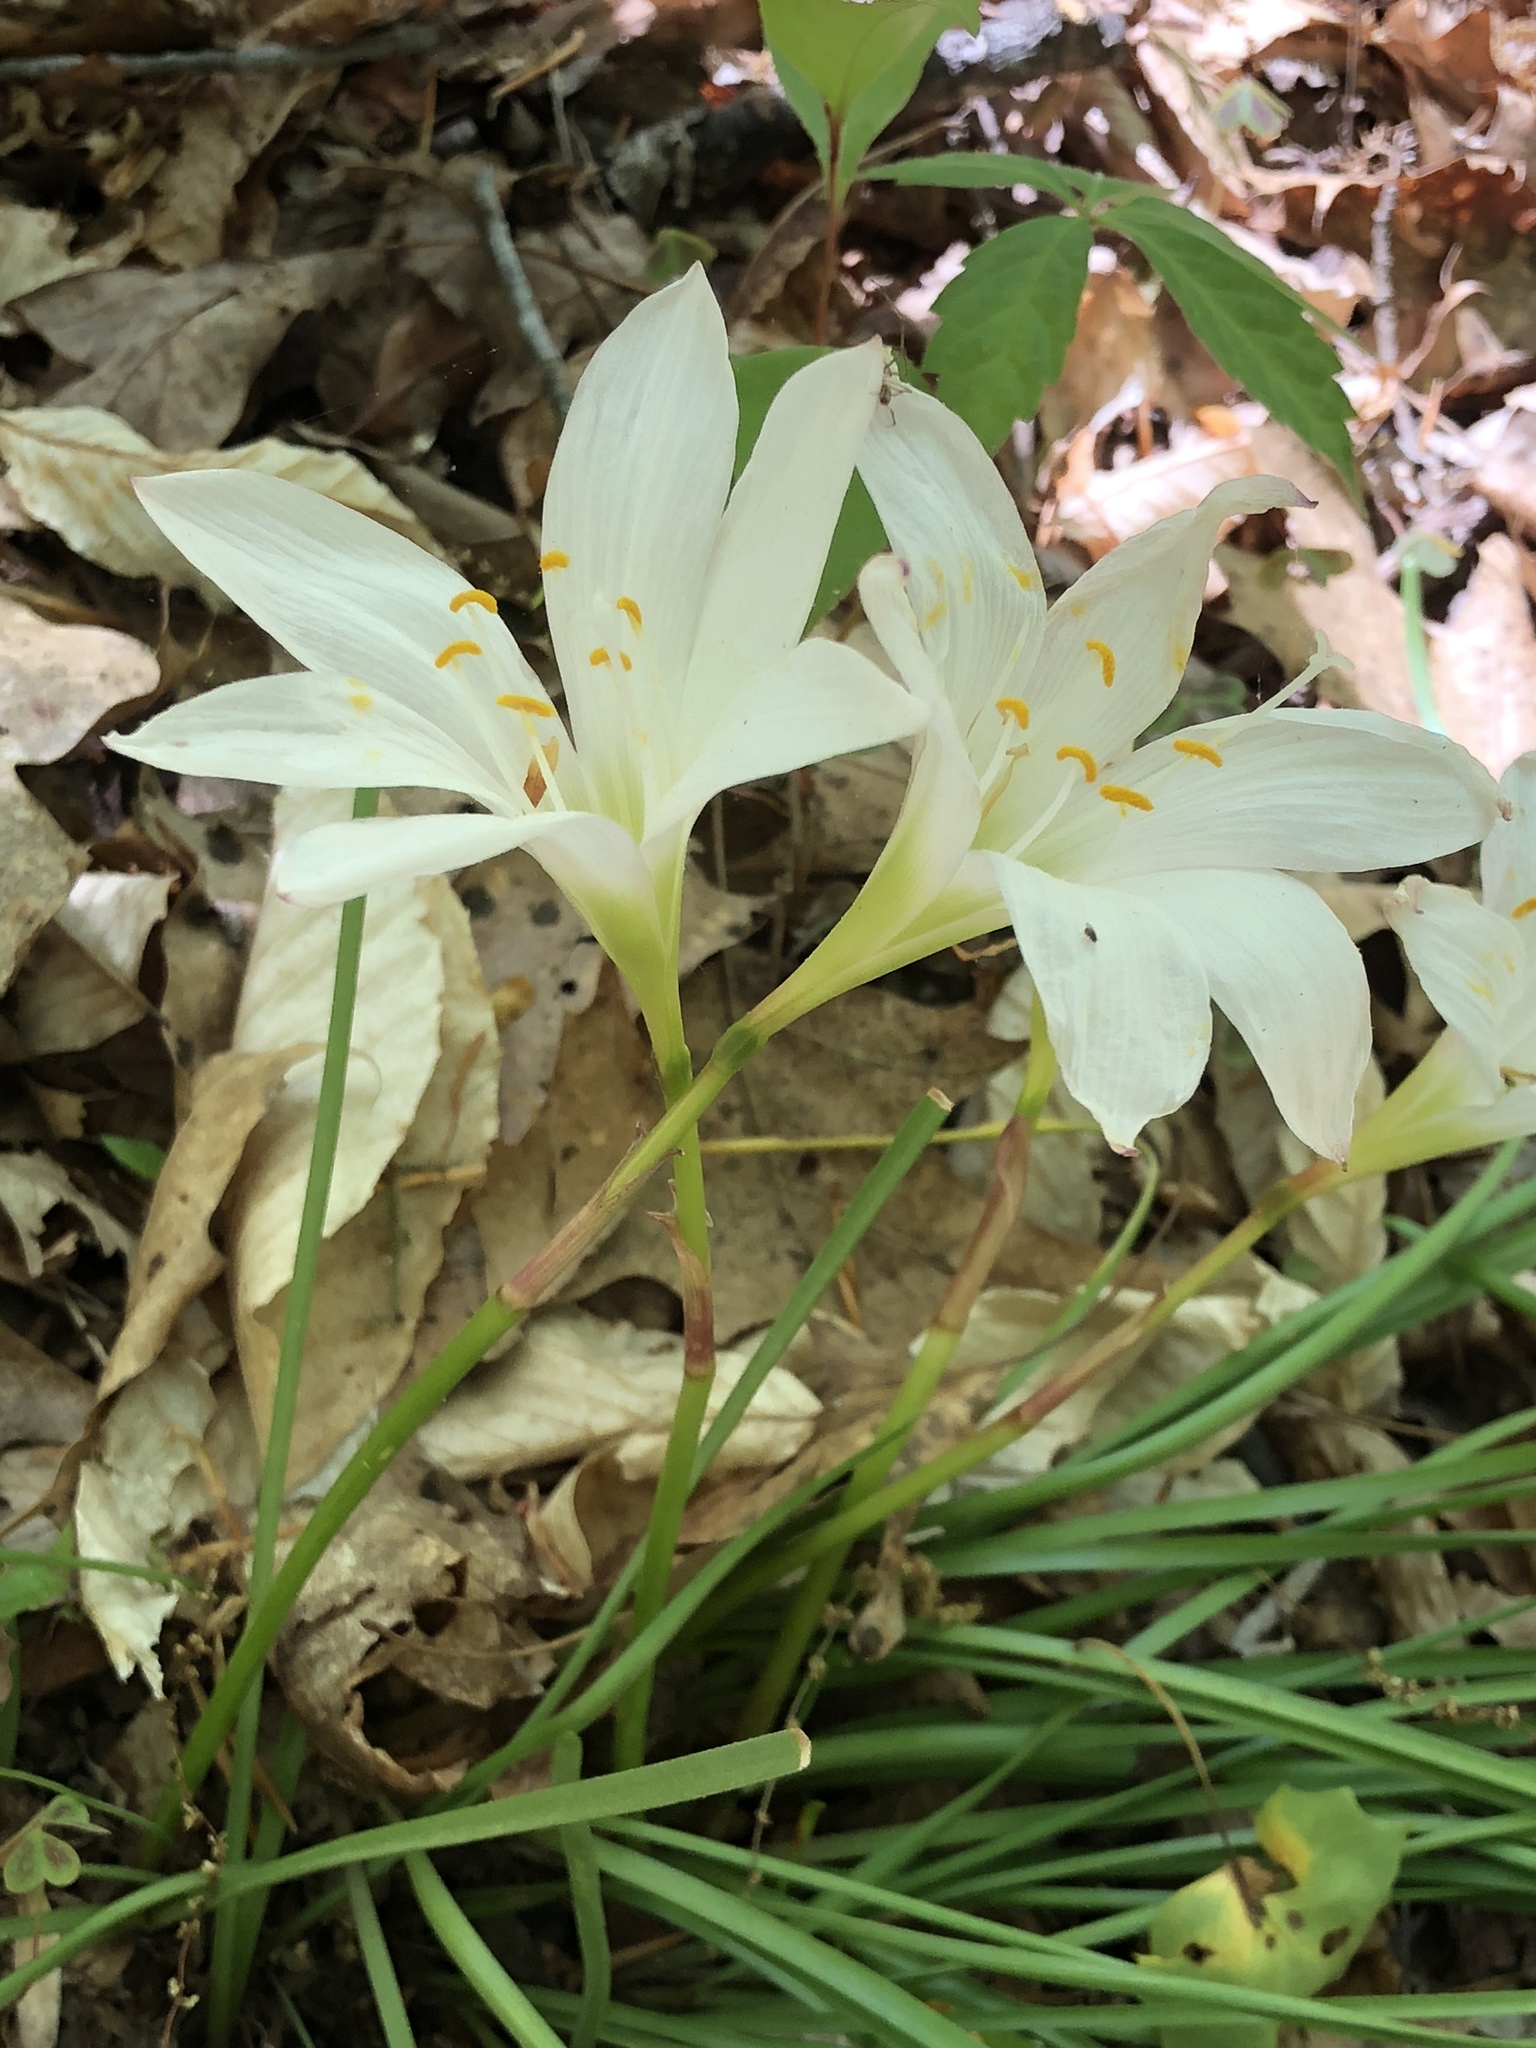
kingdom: Plantae
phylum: Tracheophyta
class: Liliopsida
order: Asparagales
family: Amaryllidaceae
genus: Zephyranthes
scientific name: Zephyranthes atamasco
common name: Atamasco lily
